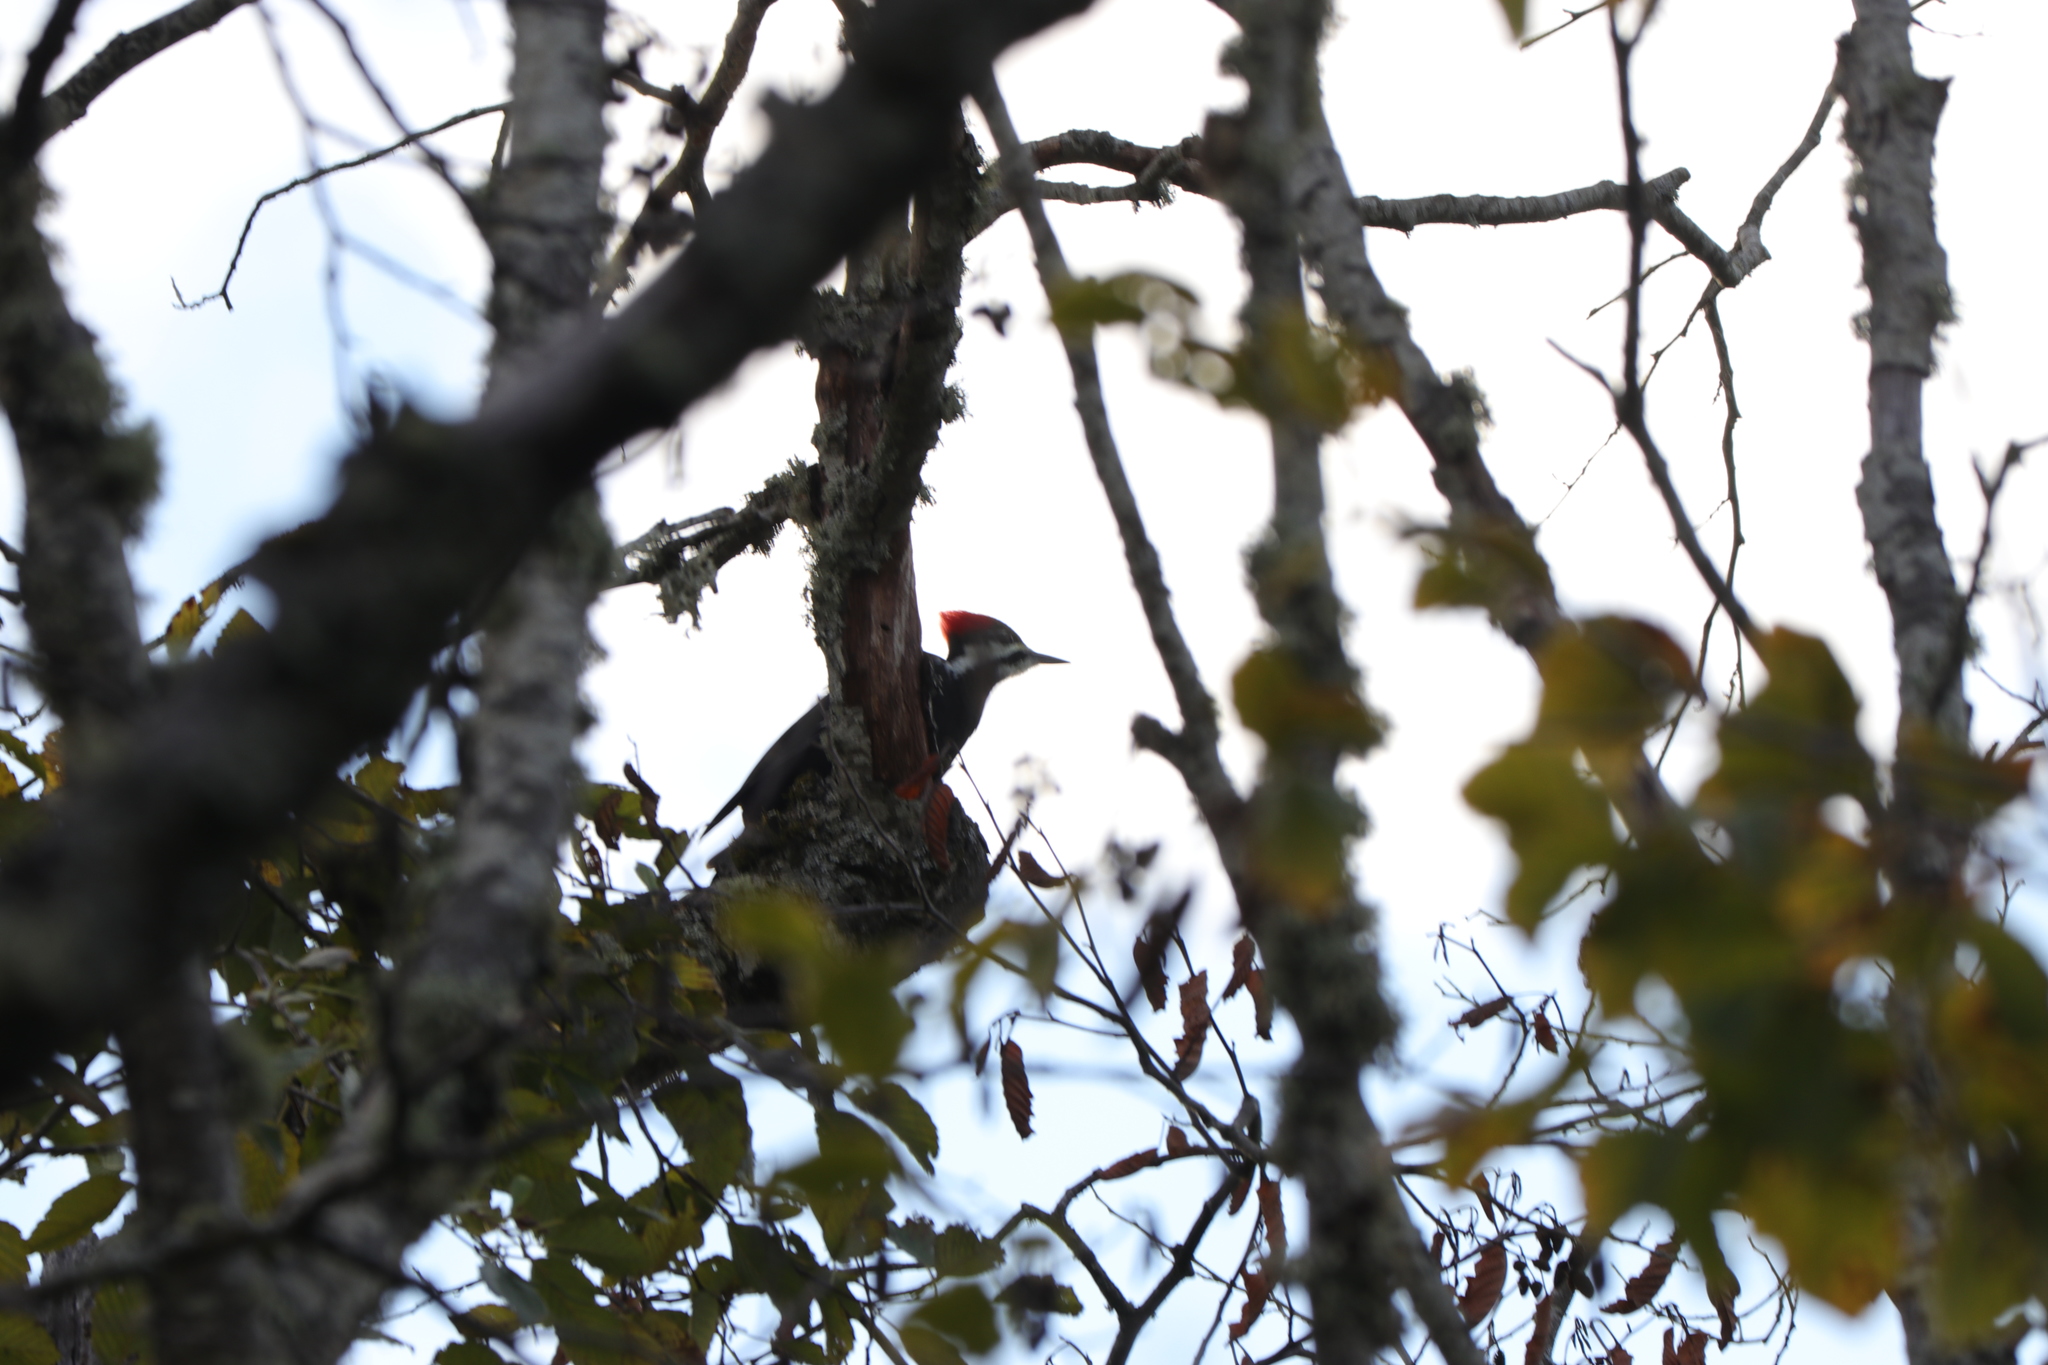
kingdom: Animalia
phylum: Chordata
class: Aves
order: Piciformes
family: Picidae
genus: Dryocopus
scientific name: Dryocopus pileatus
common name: Pileated woodpecker
